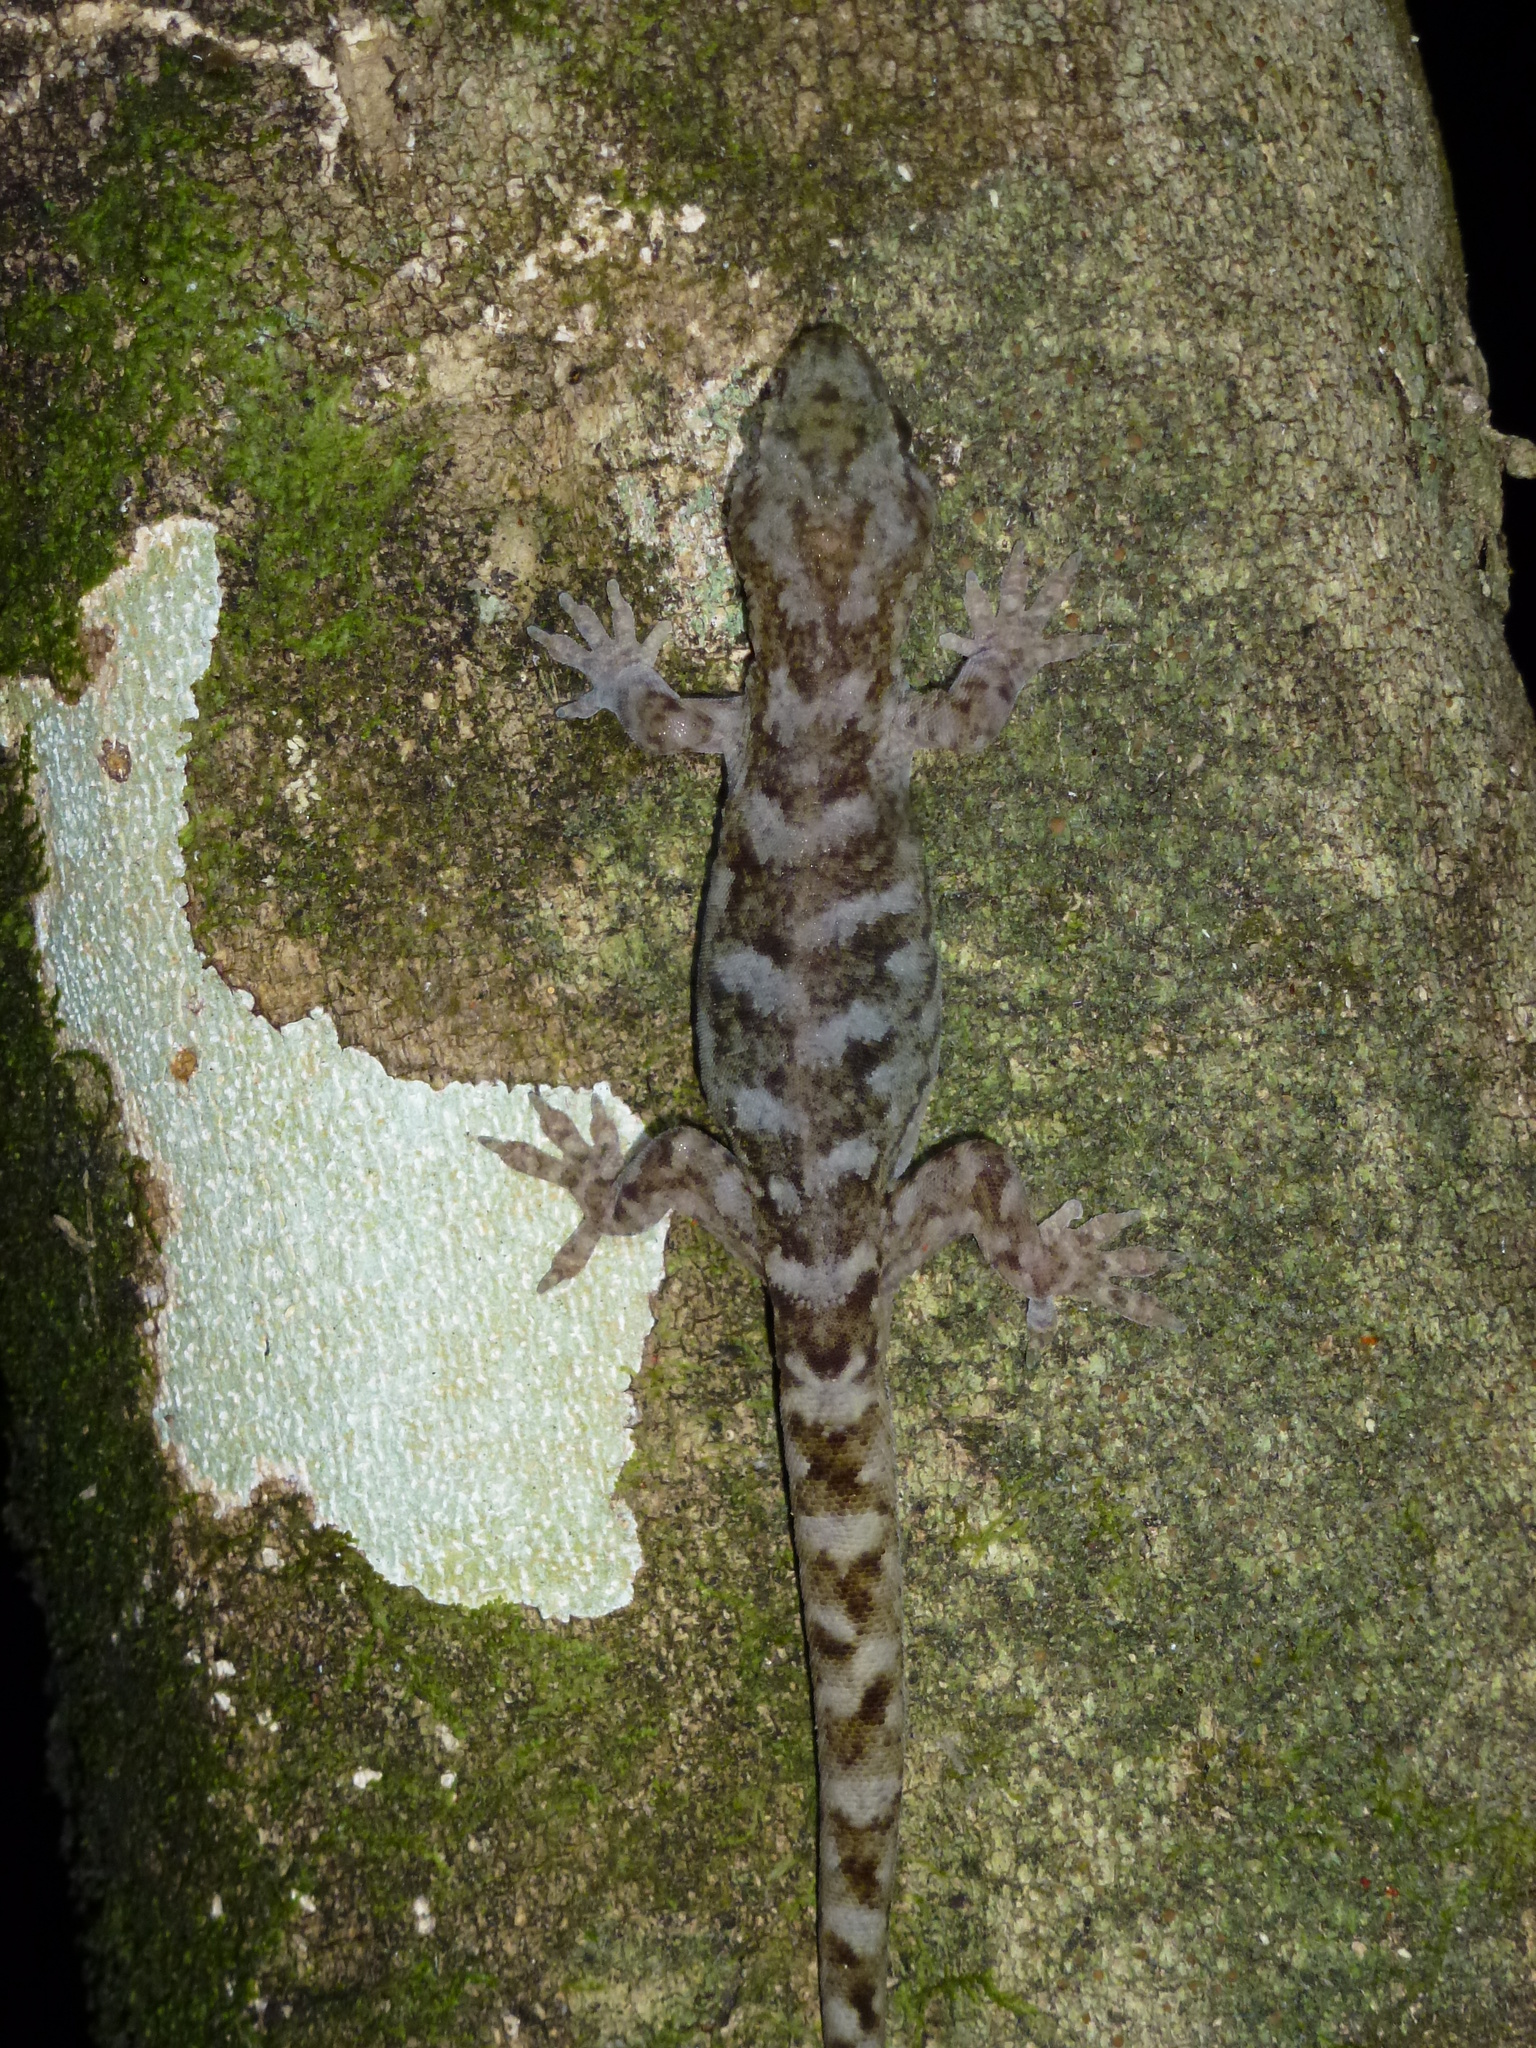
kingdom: Animalia
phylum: Chordata
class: Squamata
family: Diplodactylidae
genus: Woodworthia
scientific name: Woodworthia maculata
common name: Raukawa gecko
